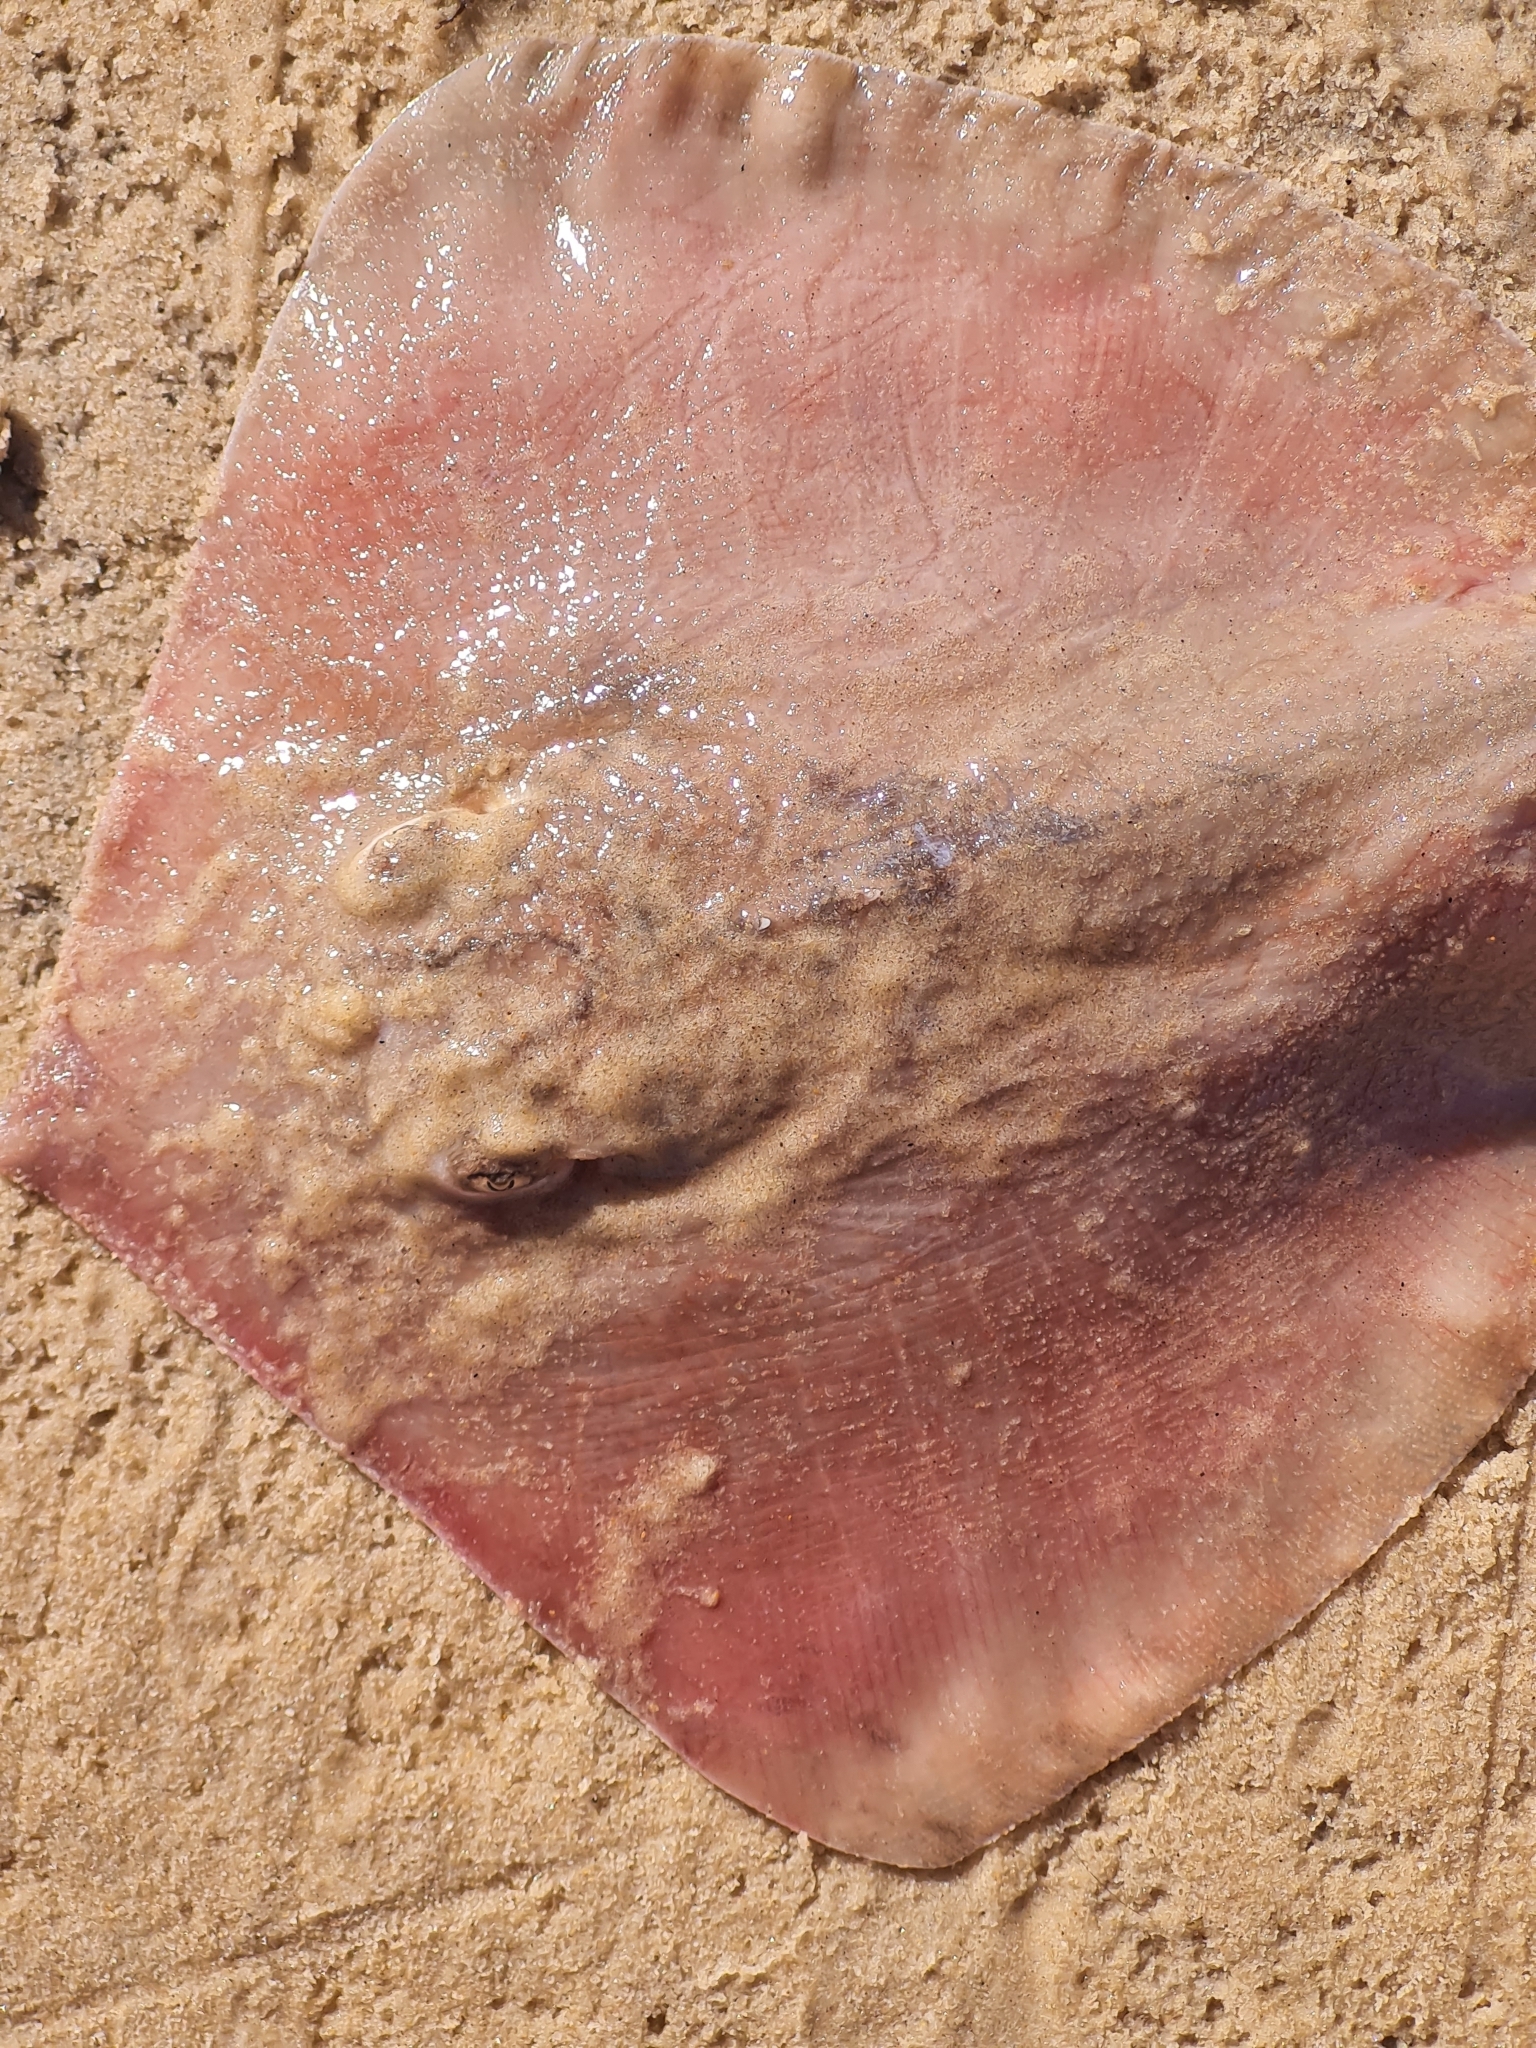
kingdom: Animalia
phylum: Chordata
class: Elasmobranchii
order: Myliobatiformes
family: Dasyatidae
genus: Hypanus
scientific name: Hypanus guttatus
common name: Longnose stingray
